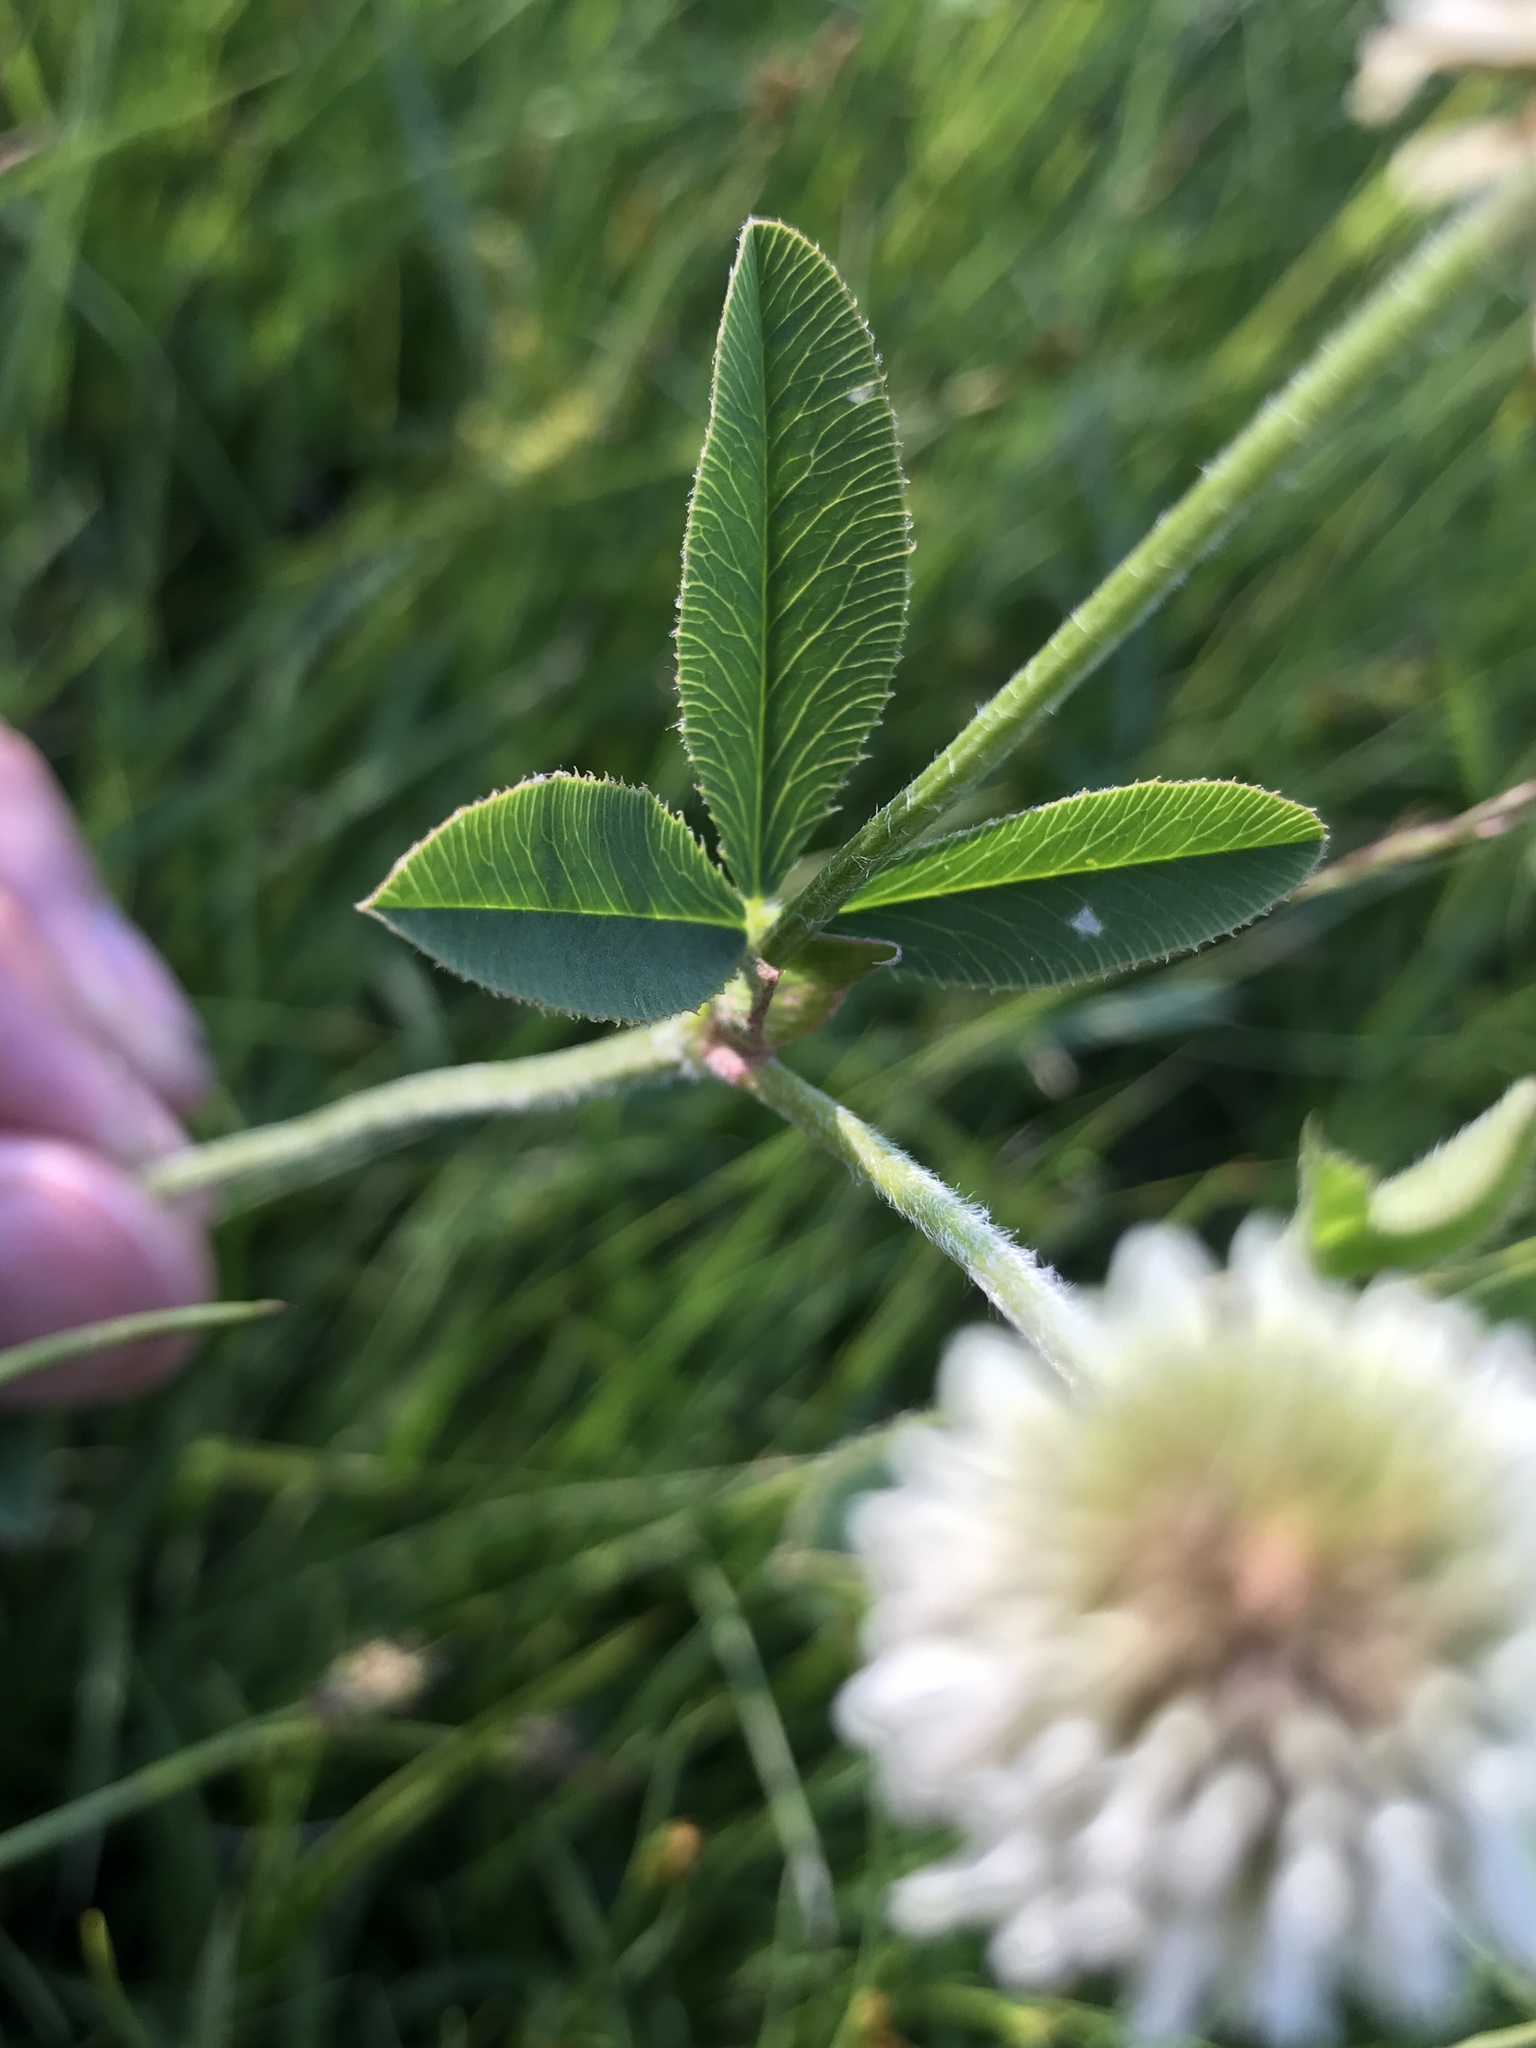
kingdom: Plantae
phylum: Tracheophyta
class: Magnoliopsida
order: Fabales
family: Fabaceae
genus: Trifolium
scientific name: Trifolium montanum
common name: Mountain clover
